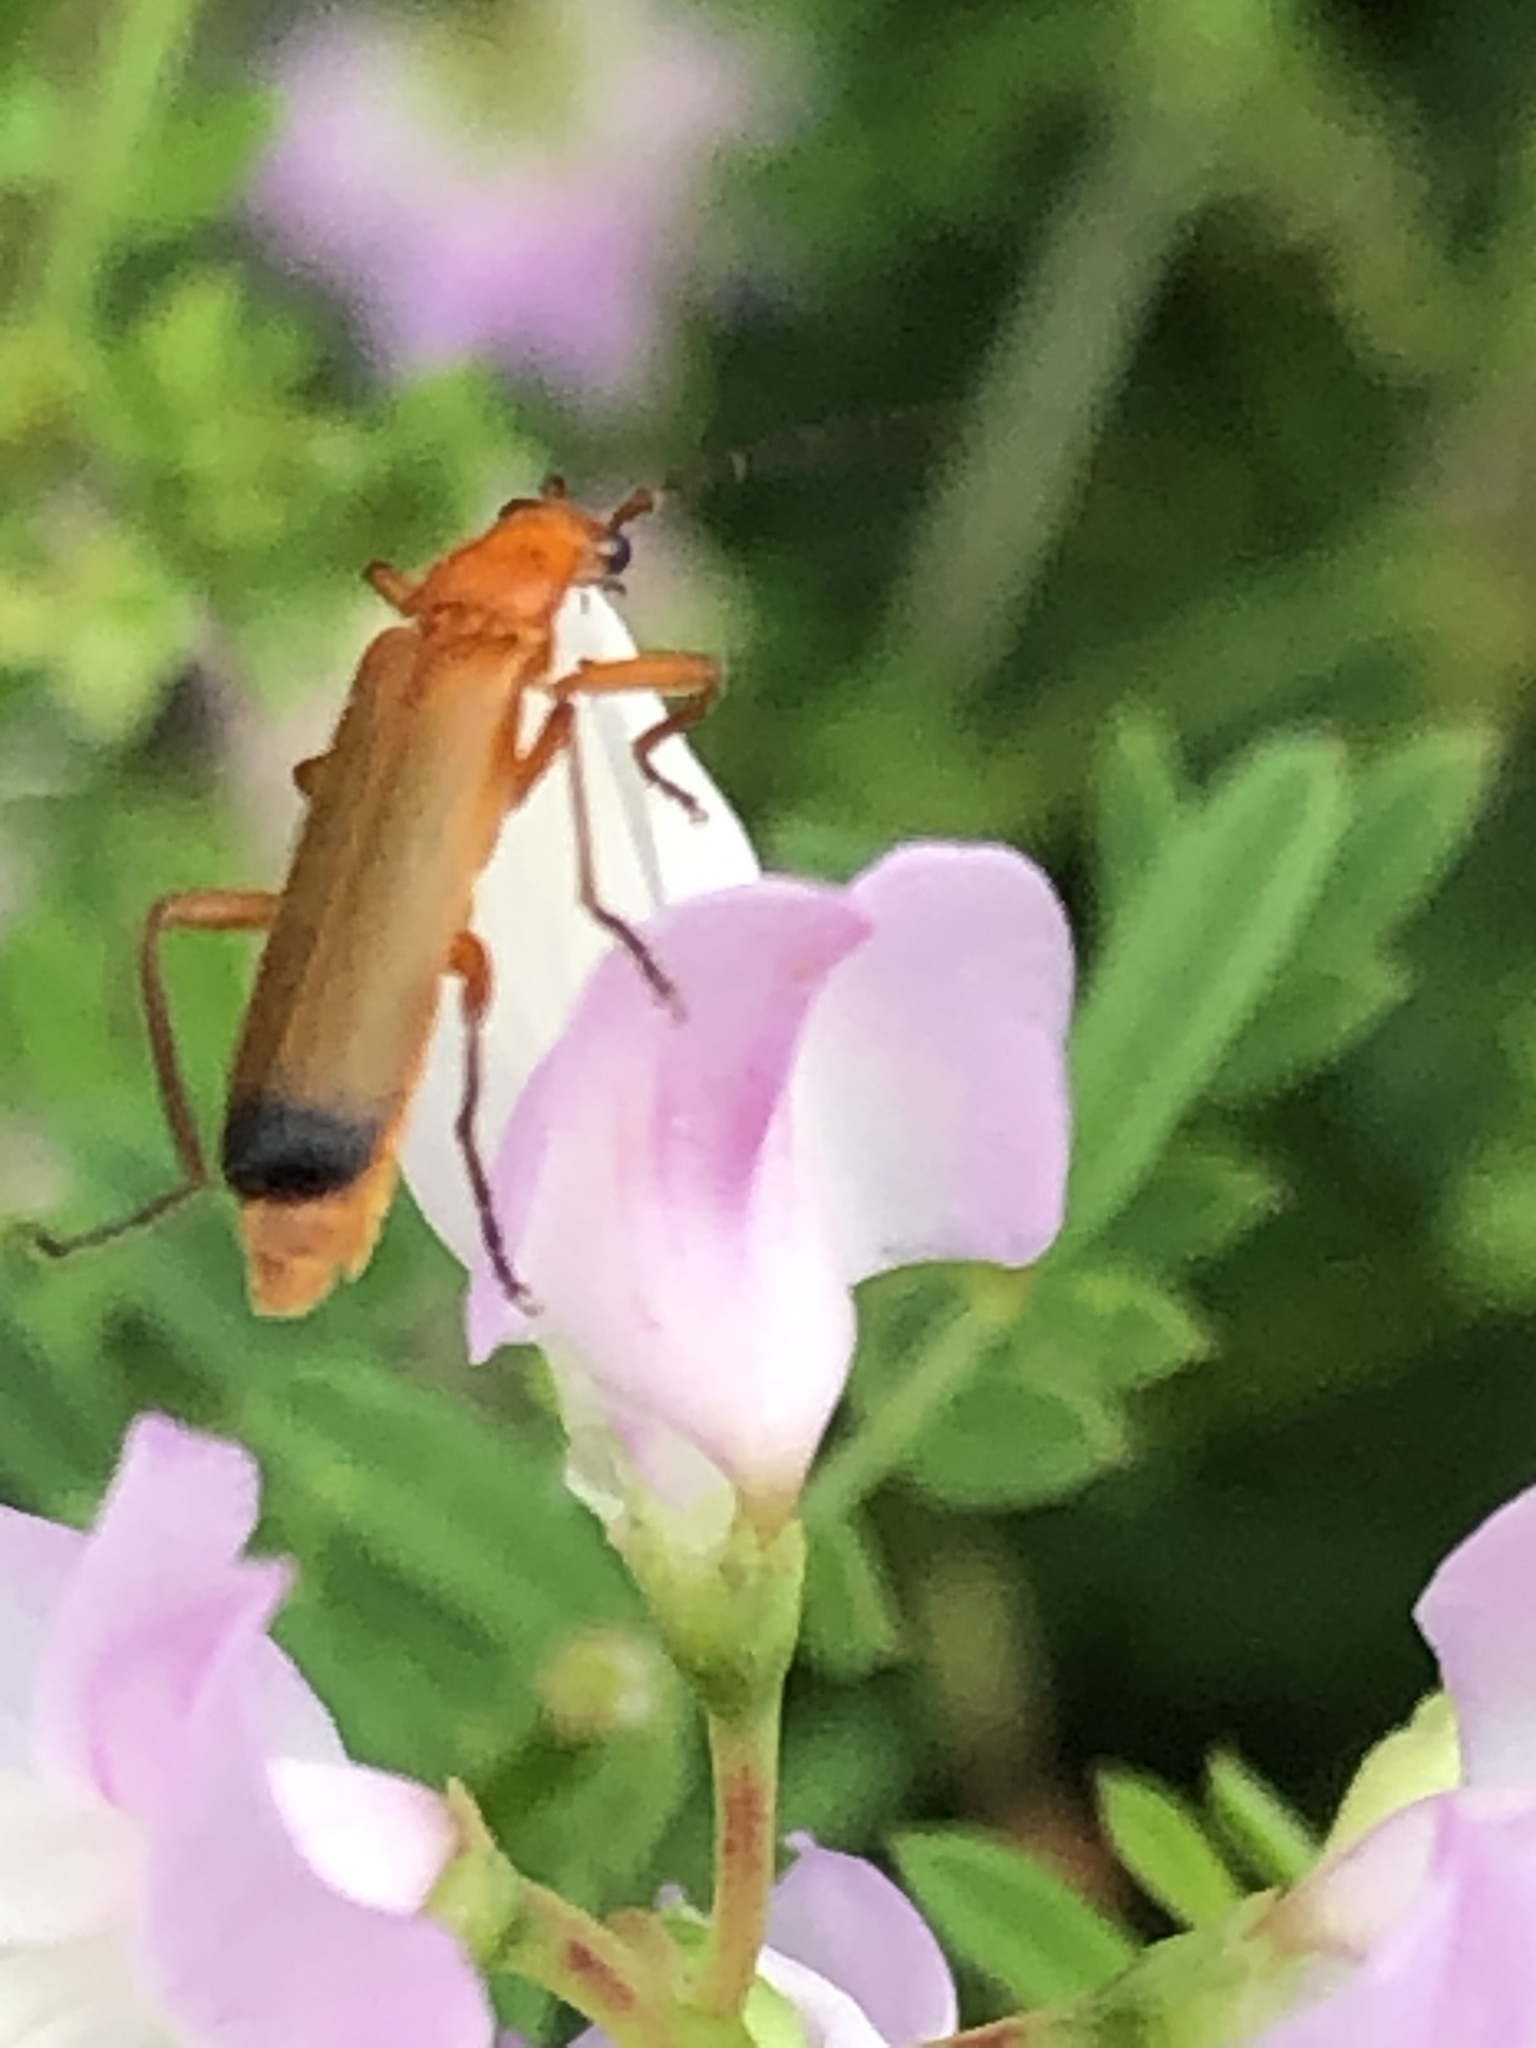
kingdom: Animalia
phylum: Arthropoda
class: Insecta
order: Coleoptera
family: Cantharidae
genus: Rhagonycha
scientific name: Rhagonycha fulva
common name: Common red soldier beetle
